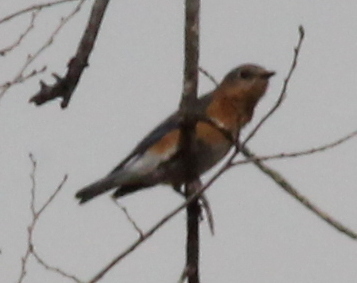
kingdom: Animalia
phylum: Chordata
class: Aves
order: Passeriformes
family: Turdidae
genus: Sialia
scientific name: Sialia sialis
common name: Eastern bluebird
